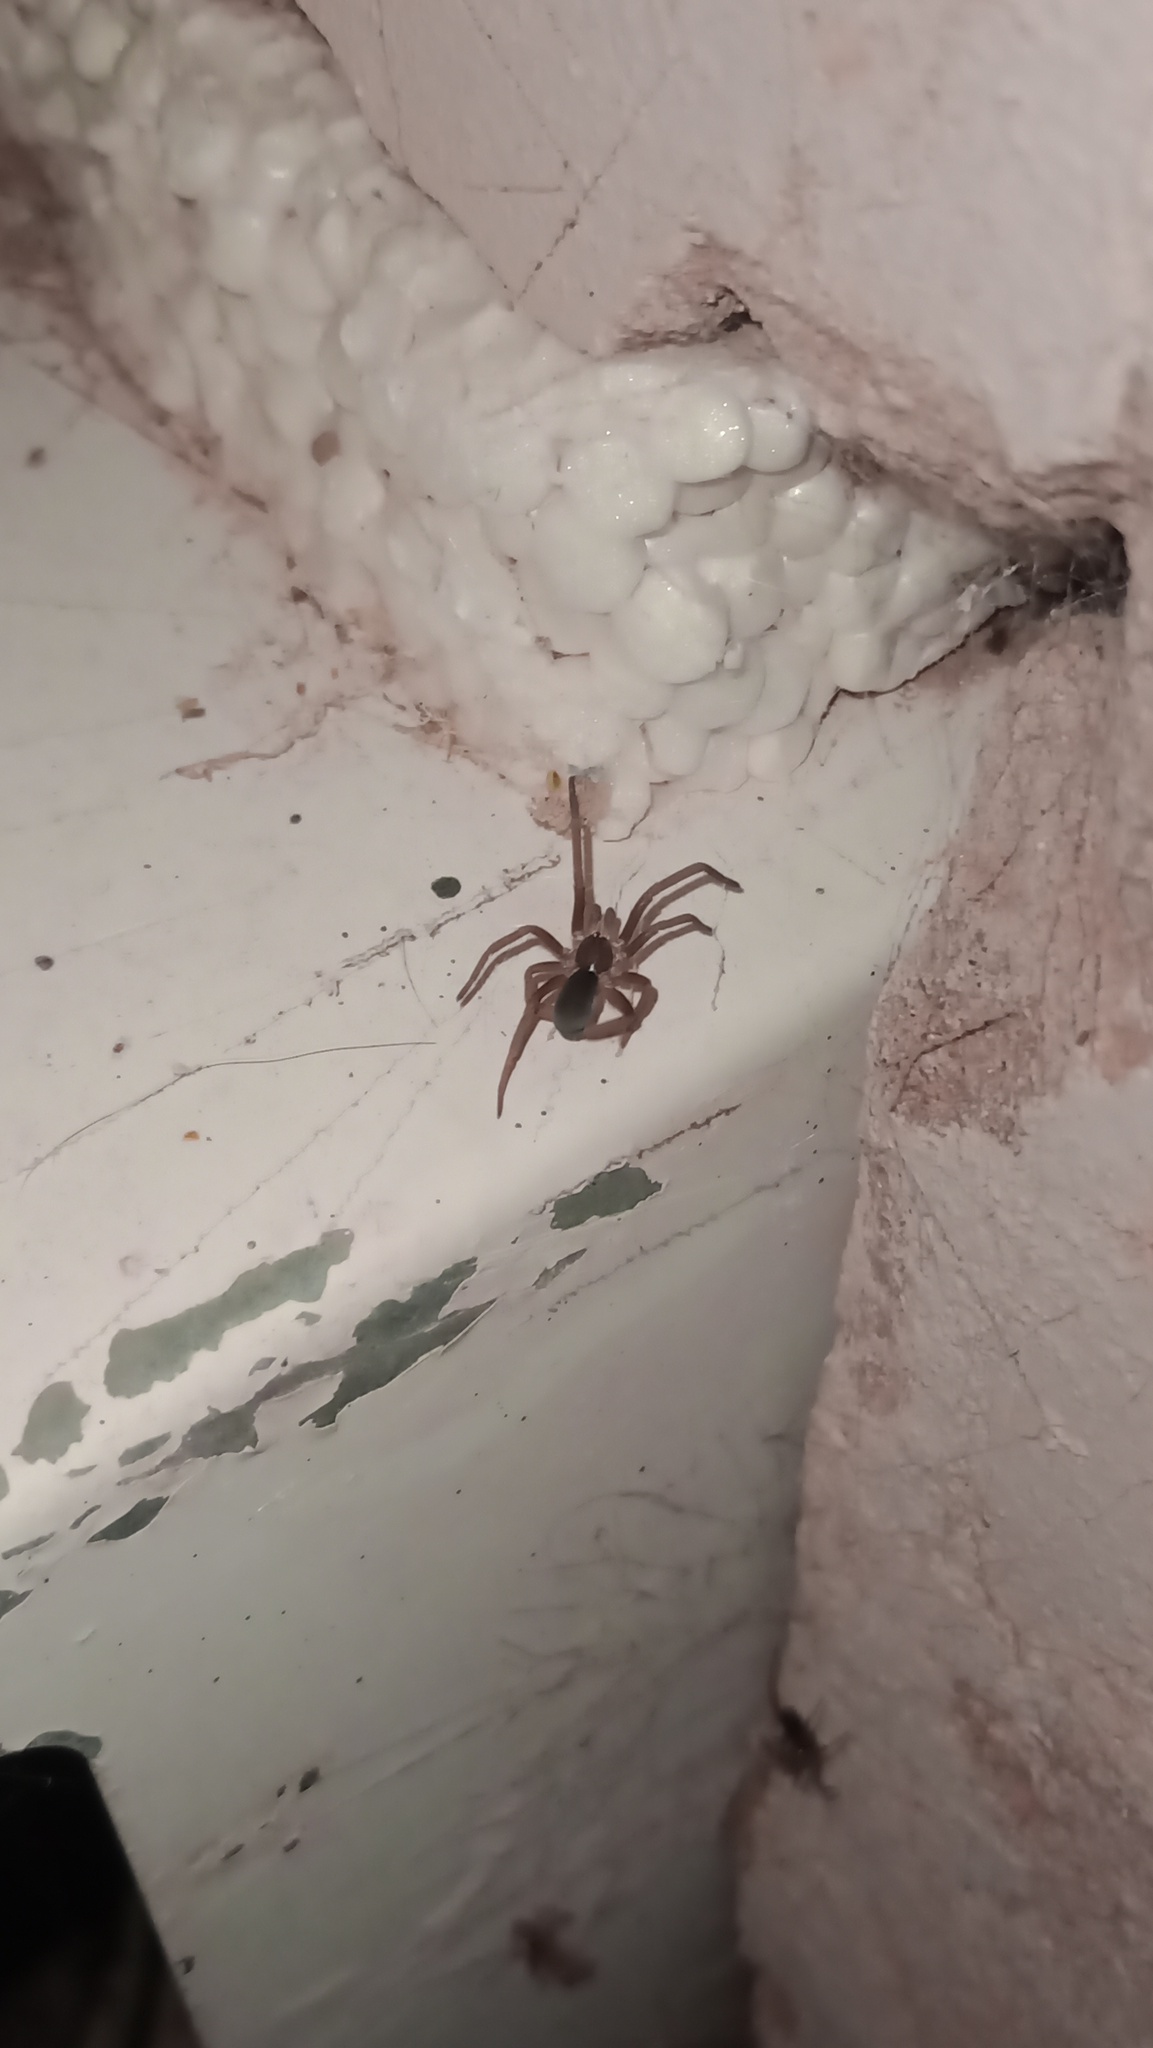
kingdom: Animalia
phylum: Arthropoda
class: Arachnida
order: Araneae
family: Filistatidae
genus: Kukulcania
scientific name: Kukulcania hibernalis
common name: Crevice weaver
